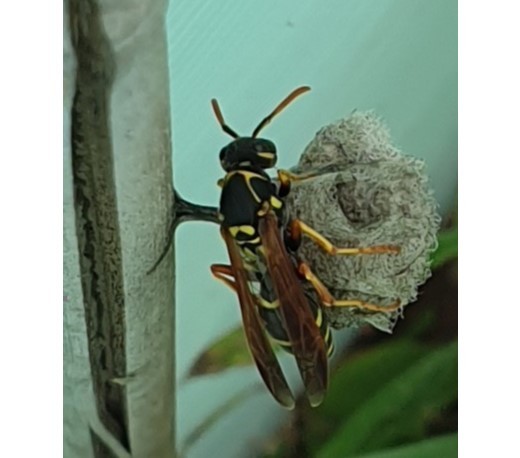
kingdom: Animalia
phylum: Arthropoda
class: Insecta
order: Hymenoptera
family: Eumenidae
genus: Polistes
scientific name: Polistes chinensis
